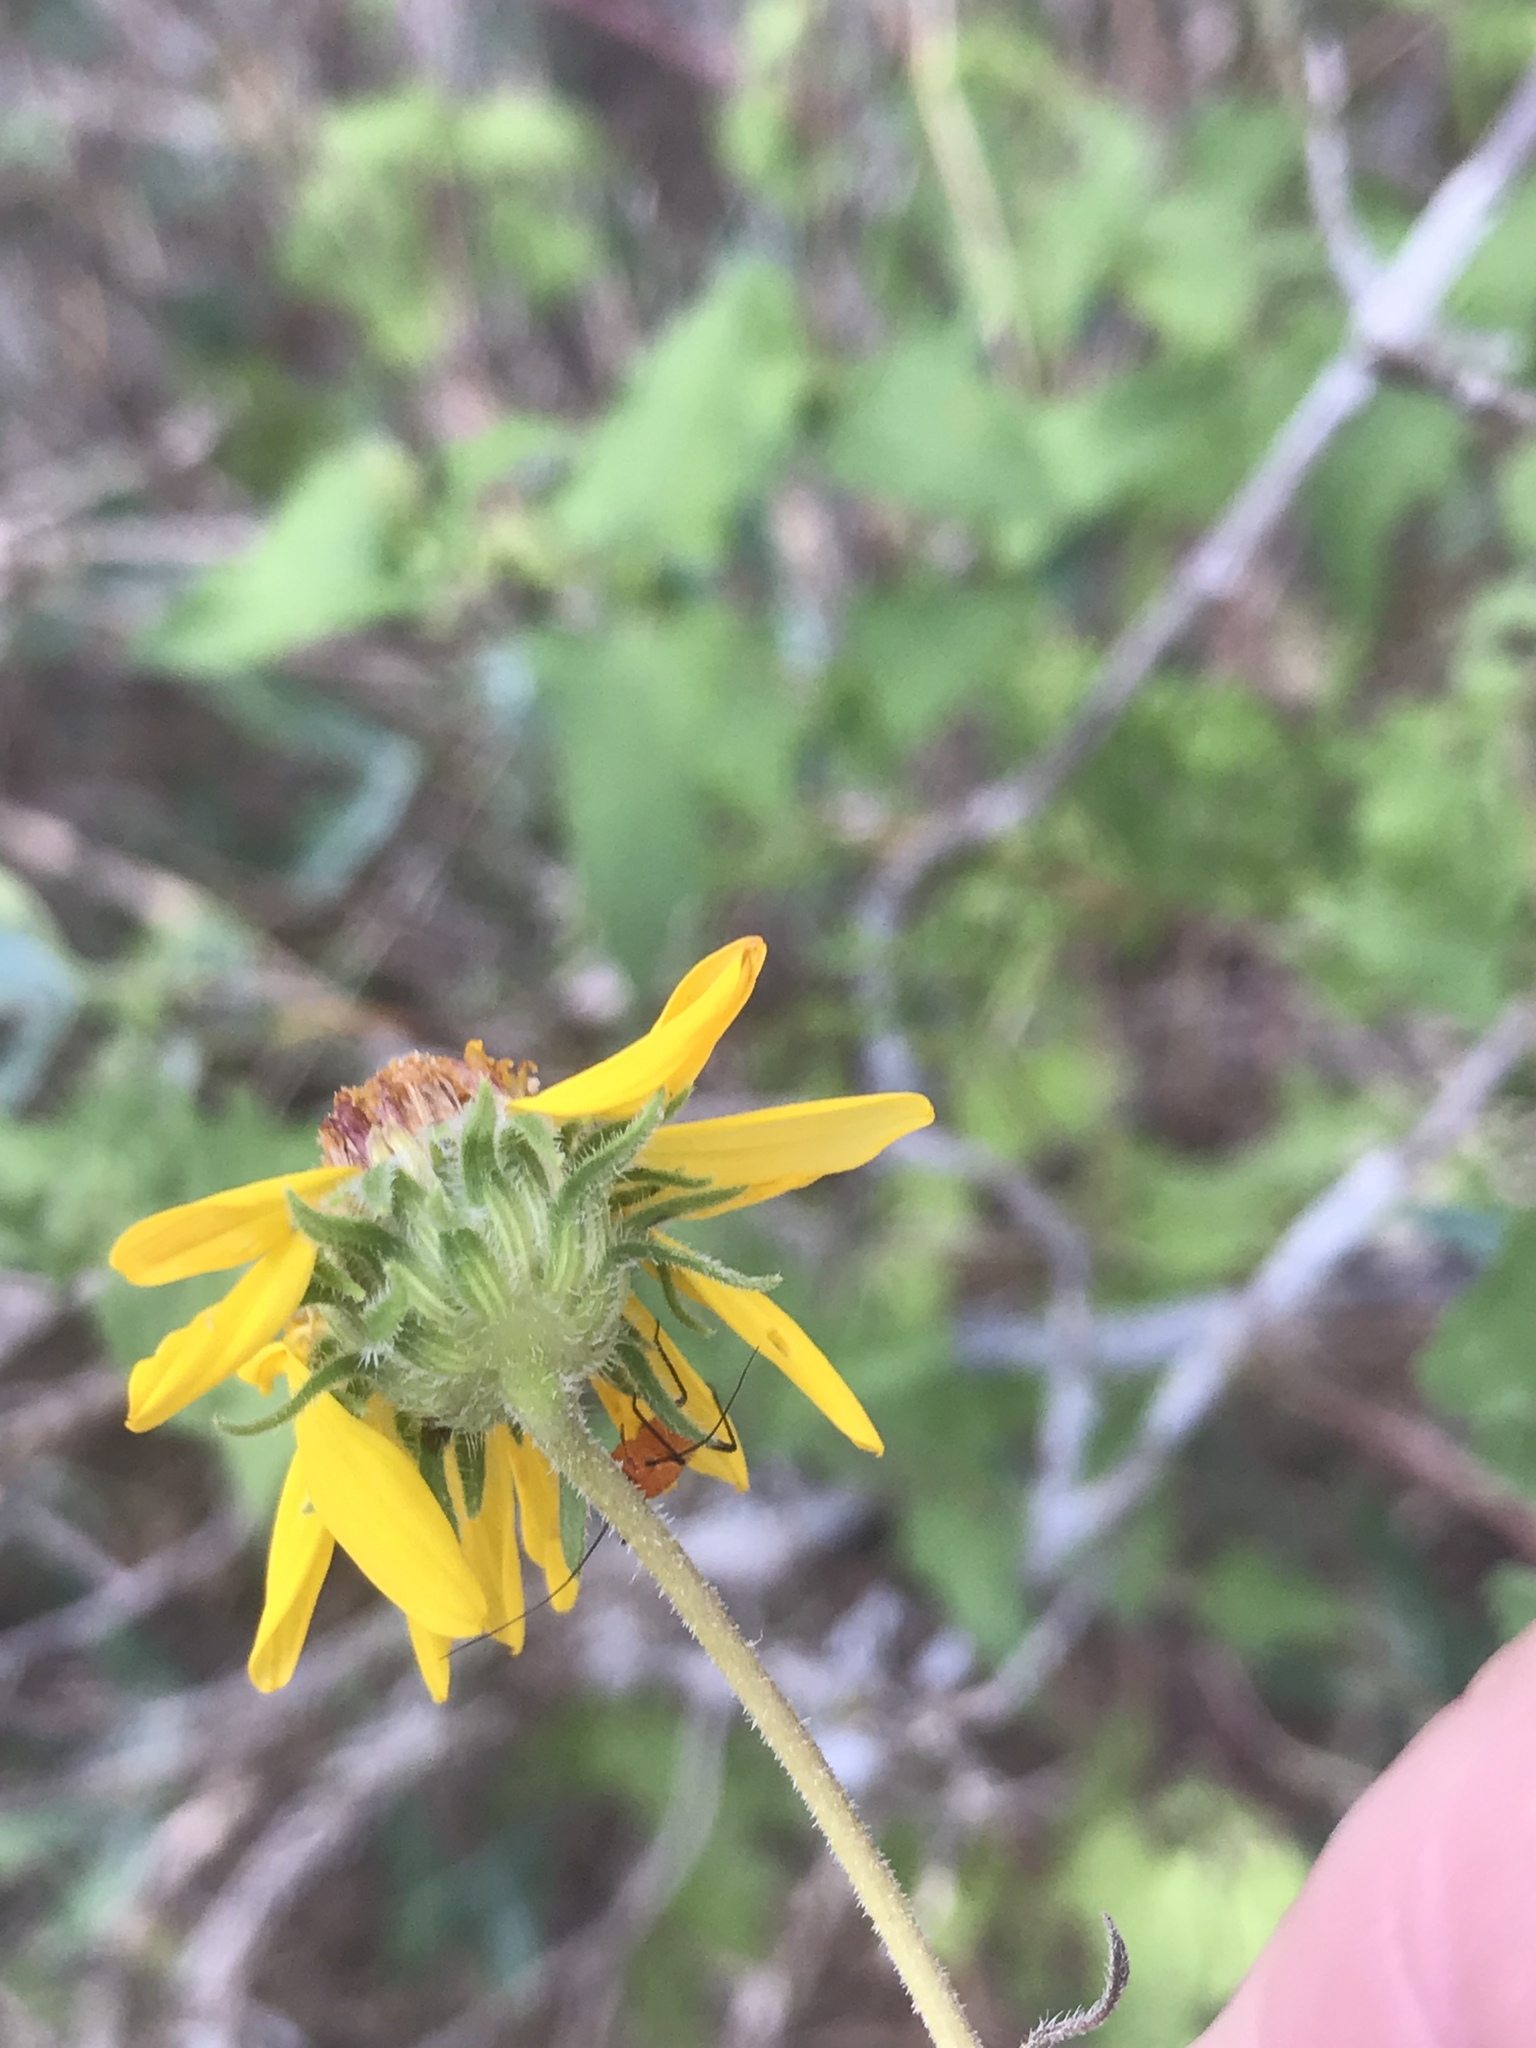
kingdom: Plantae
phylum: Tracheophyta
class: Magnoliopsida
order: Asterales
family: Asteraceae
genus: Simsia
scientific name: Simsia calva
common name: Awnless bush-sunflower
